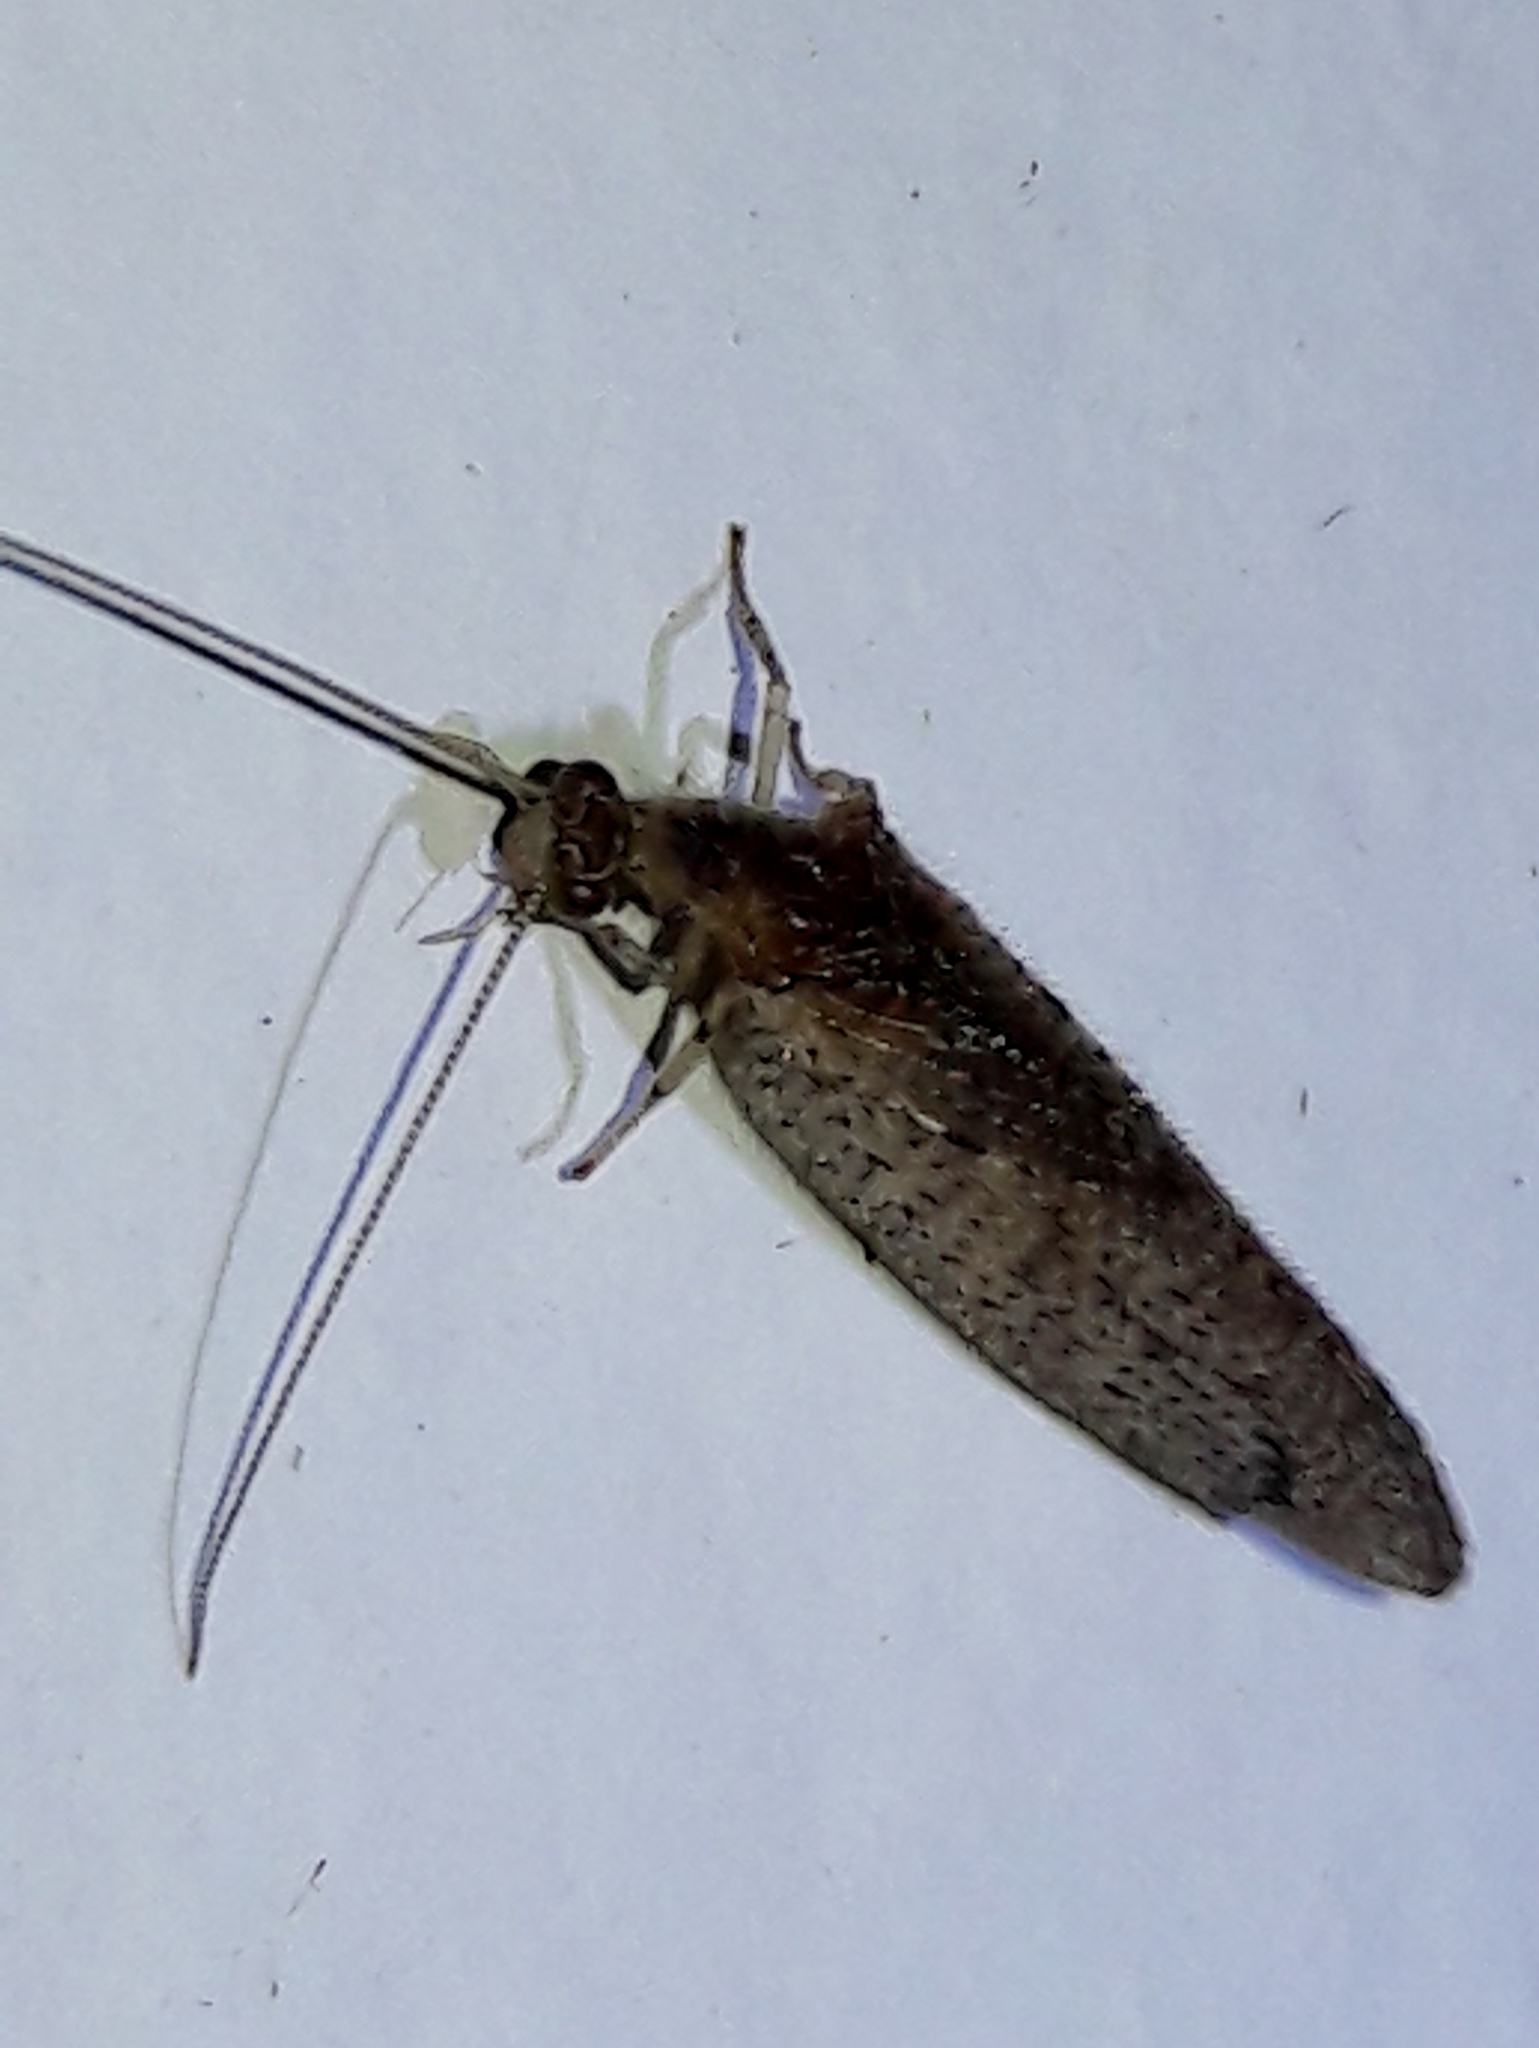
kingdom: Animalia
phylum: Arthropoda
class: Insecta
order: Neuroptera
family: Hemerobiidae
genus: Nusalala
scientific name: Nusalala tessellata
